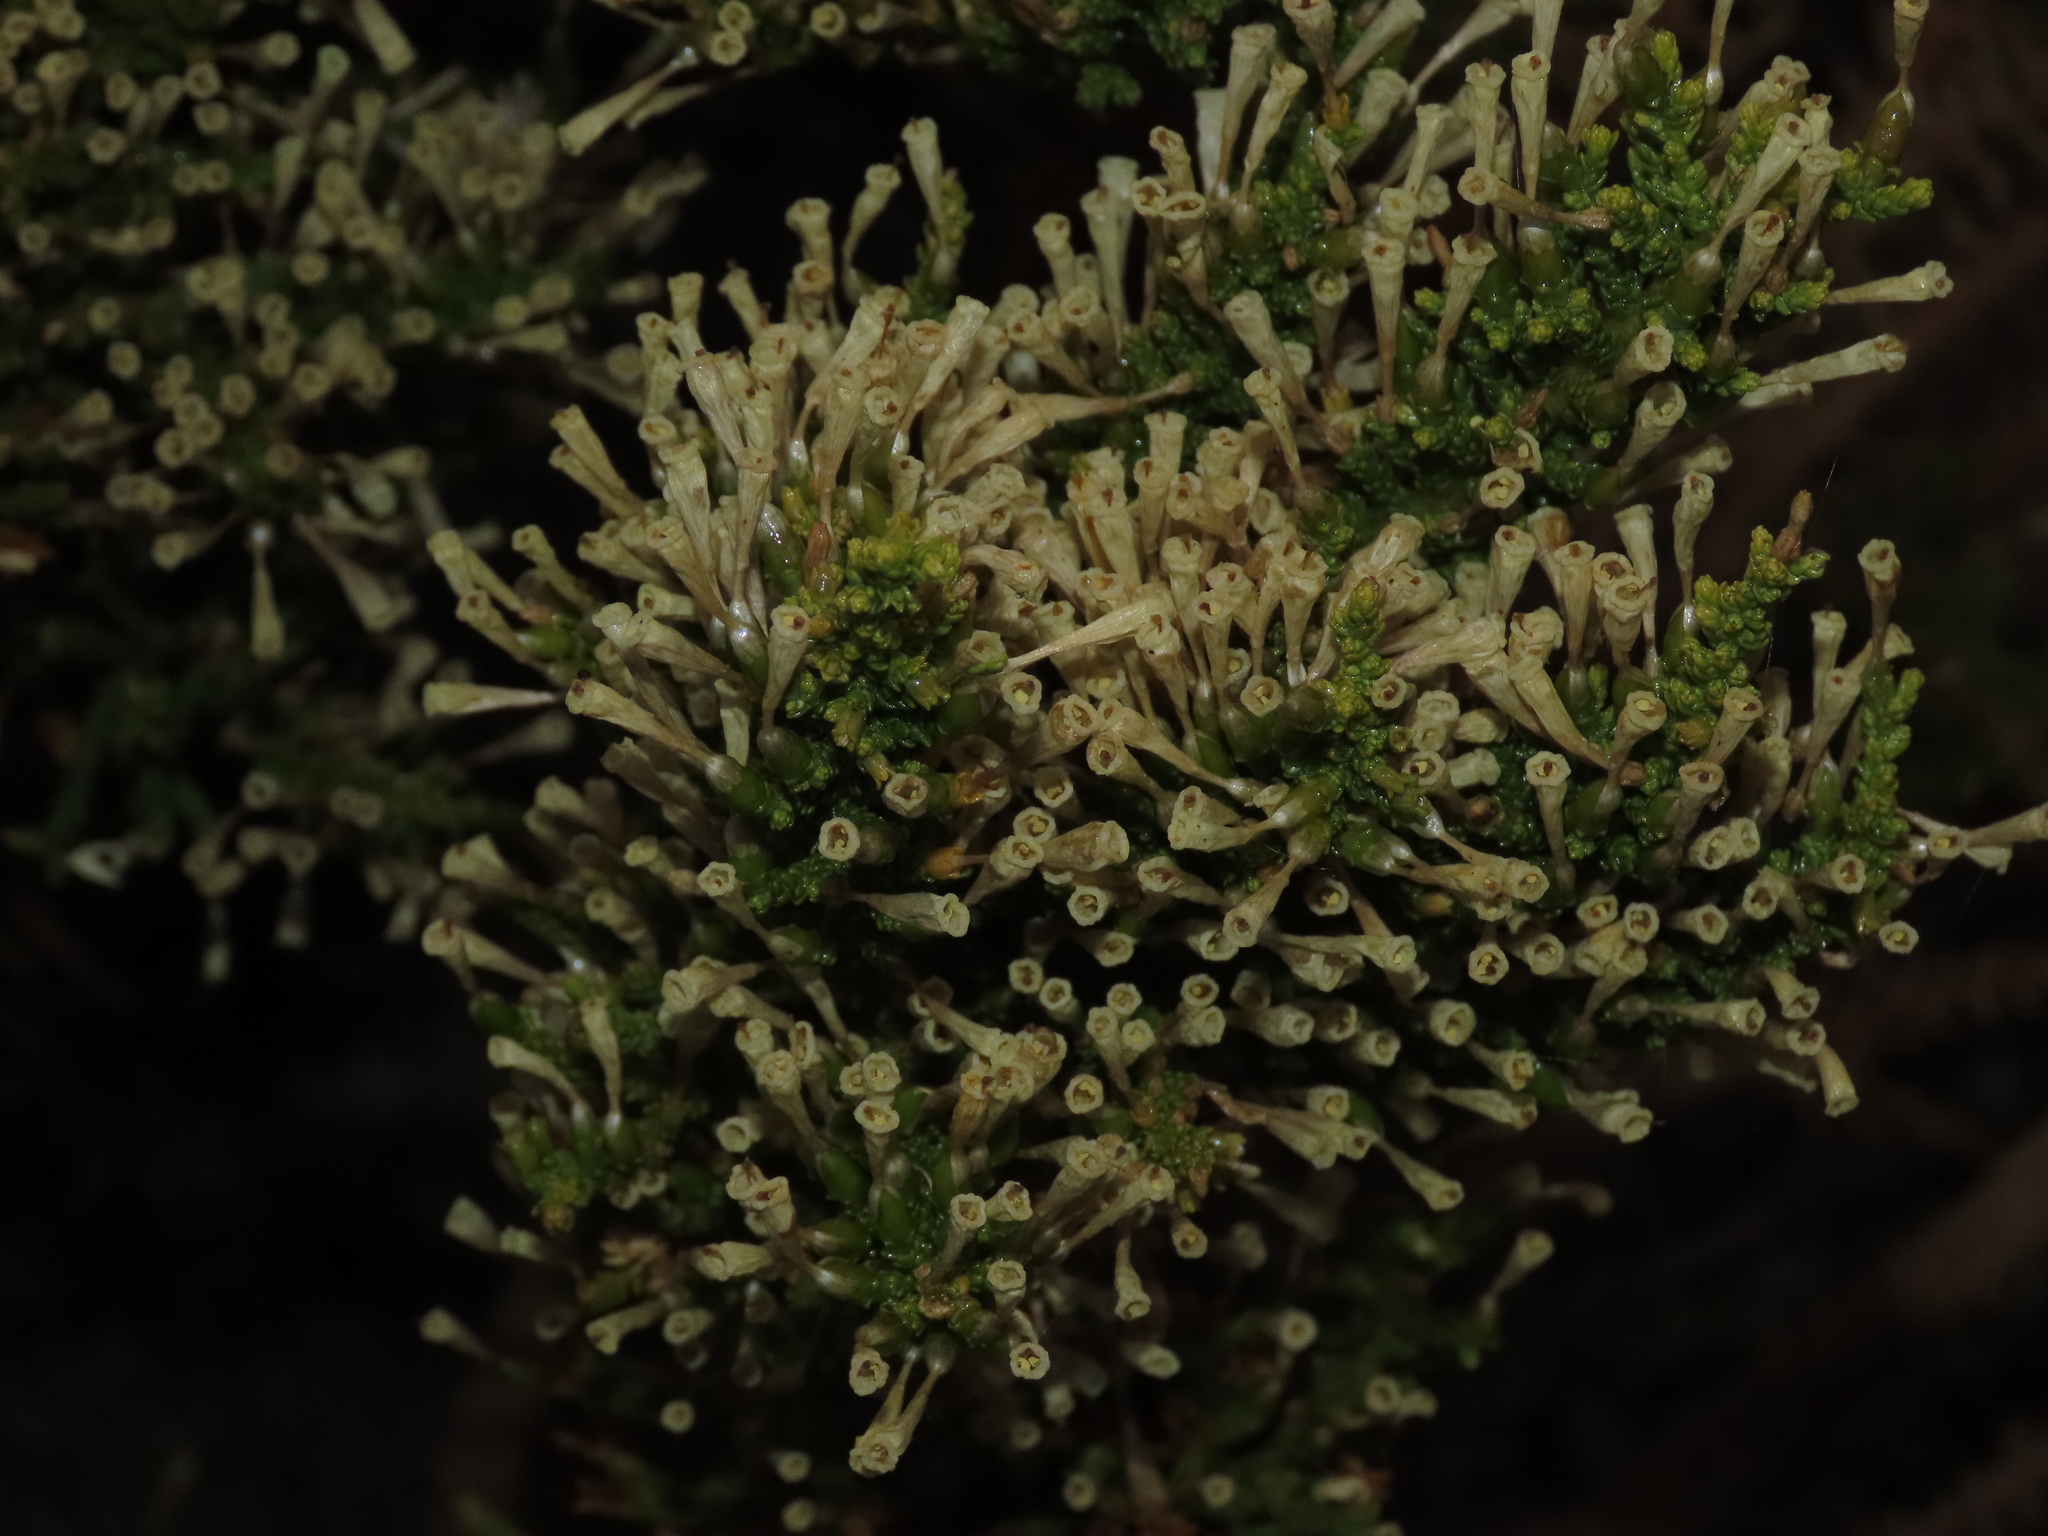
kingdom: Plantae
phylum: Tracheophyta
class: Magnoliopsida
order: Solanales
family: Solanaceae
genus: Fabiana
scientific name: Fabiana imbricata
